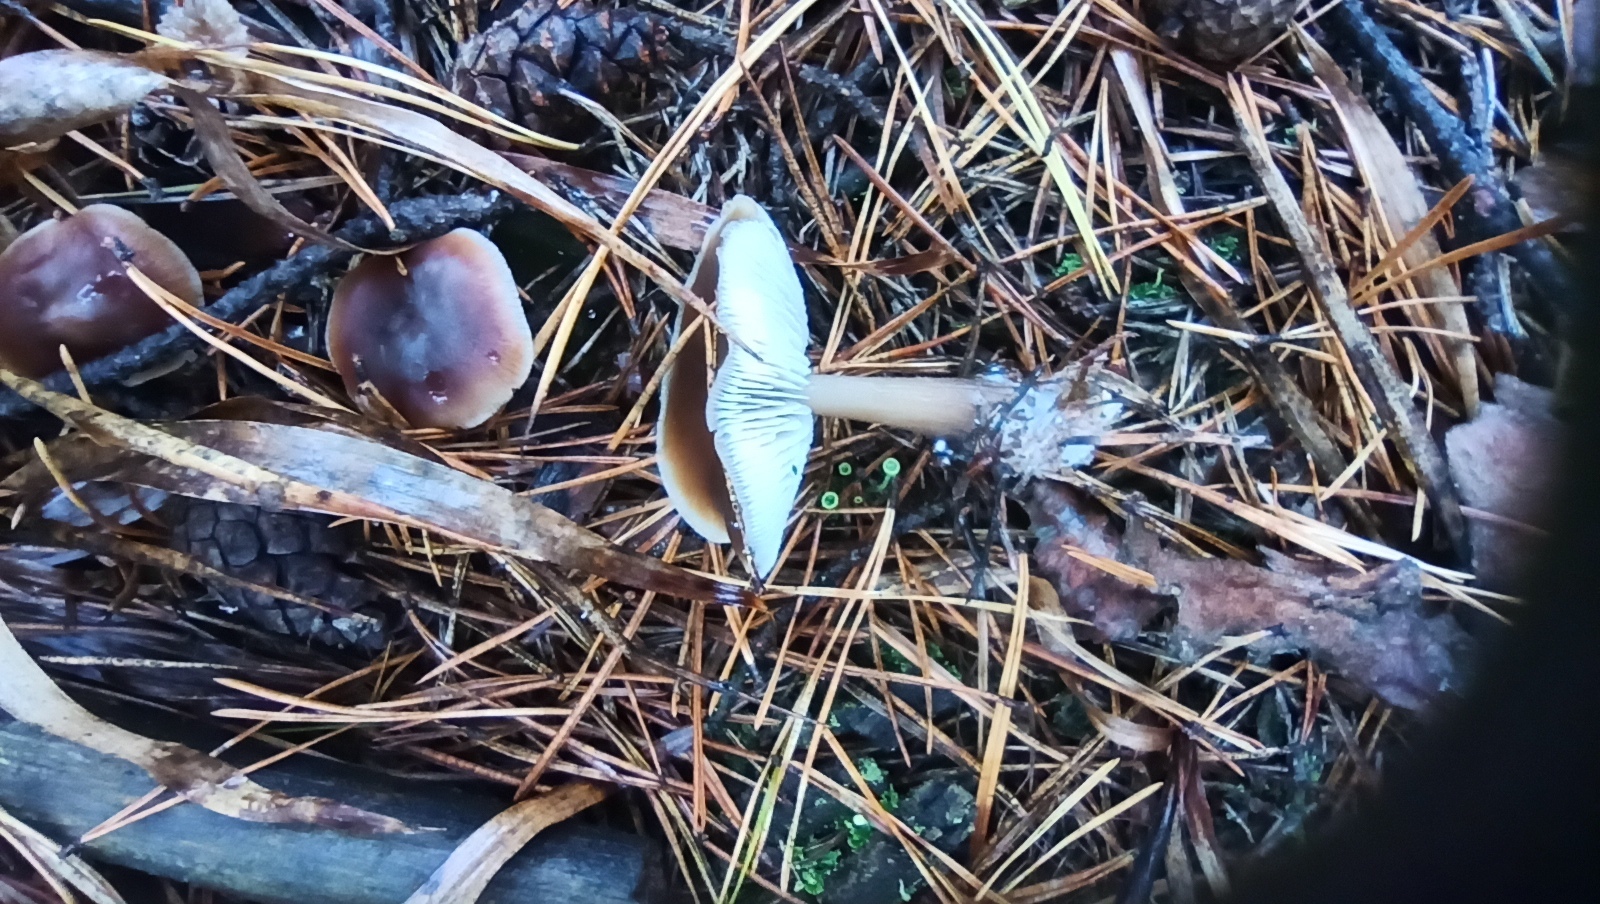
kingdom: Fungi
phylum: Basidiomycota
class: Agaricomycetes
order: Agaricales
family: Omphalotaceae
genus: Rhodocollybia
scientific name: Rhodocollybia butyracea
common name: Butter cap
